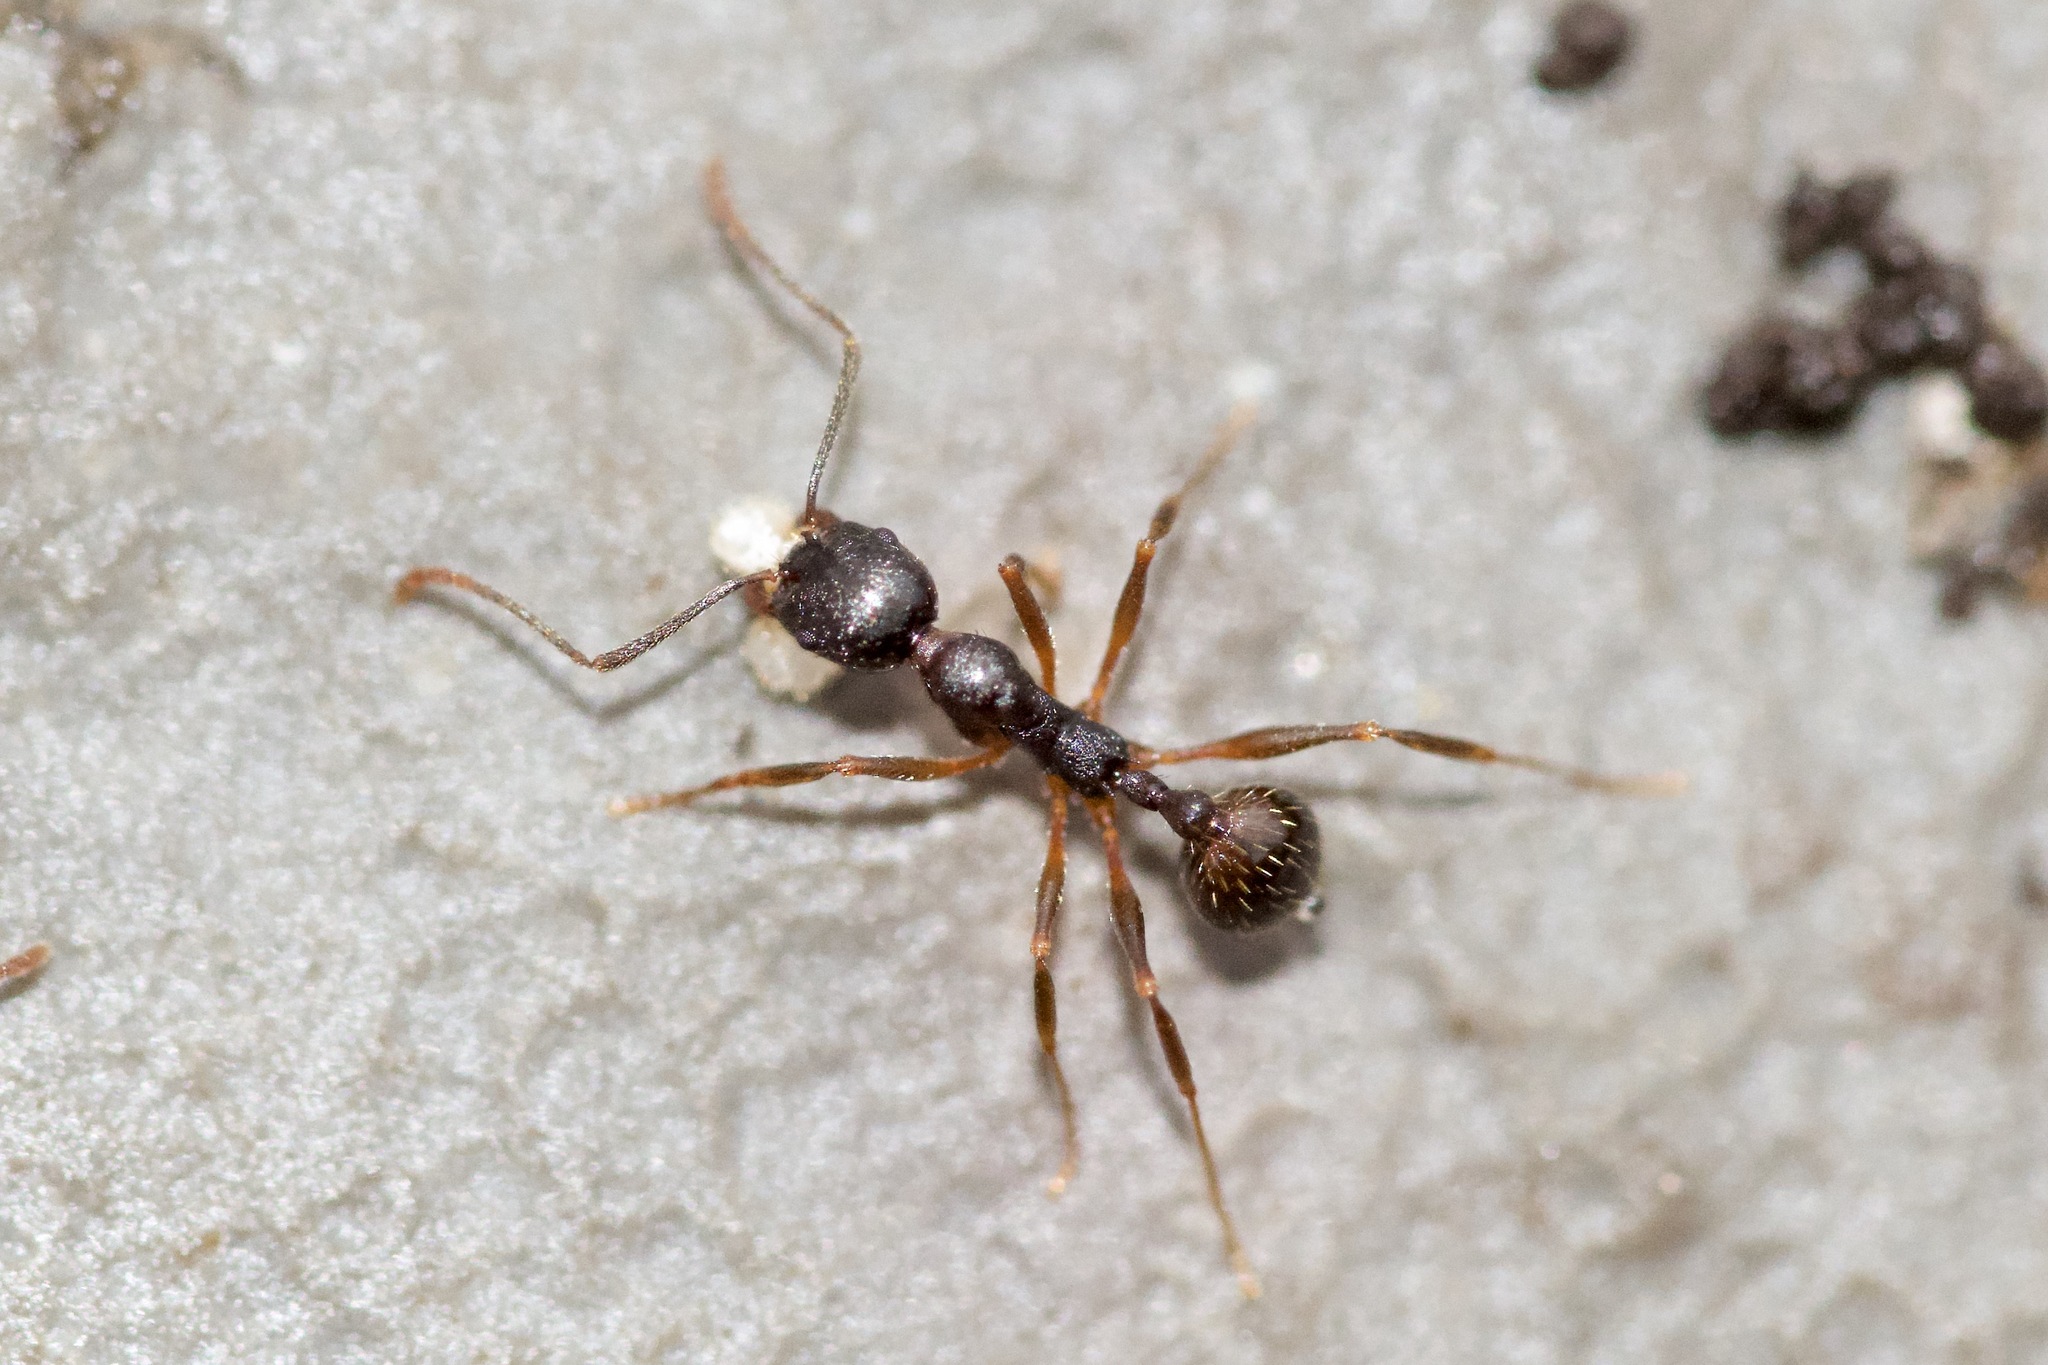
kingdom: Animalia
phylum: Arthropoda
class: Insecta
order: Hymenoptera
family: Formicidae
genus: Aphaenogaster
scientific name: Aphaenogaster picea
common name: Pitch-black collared ant
